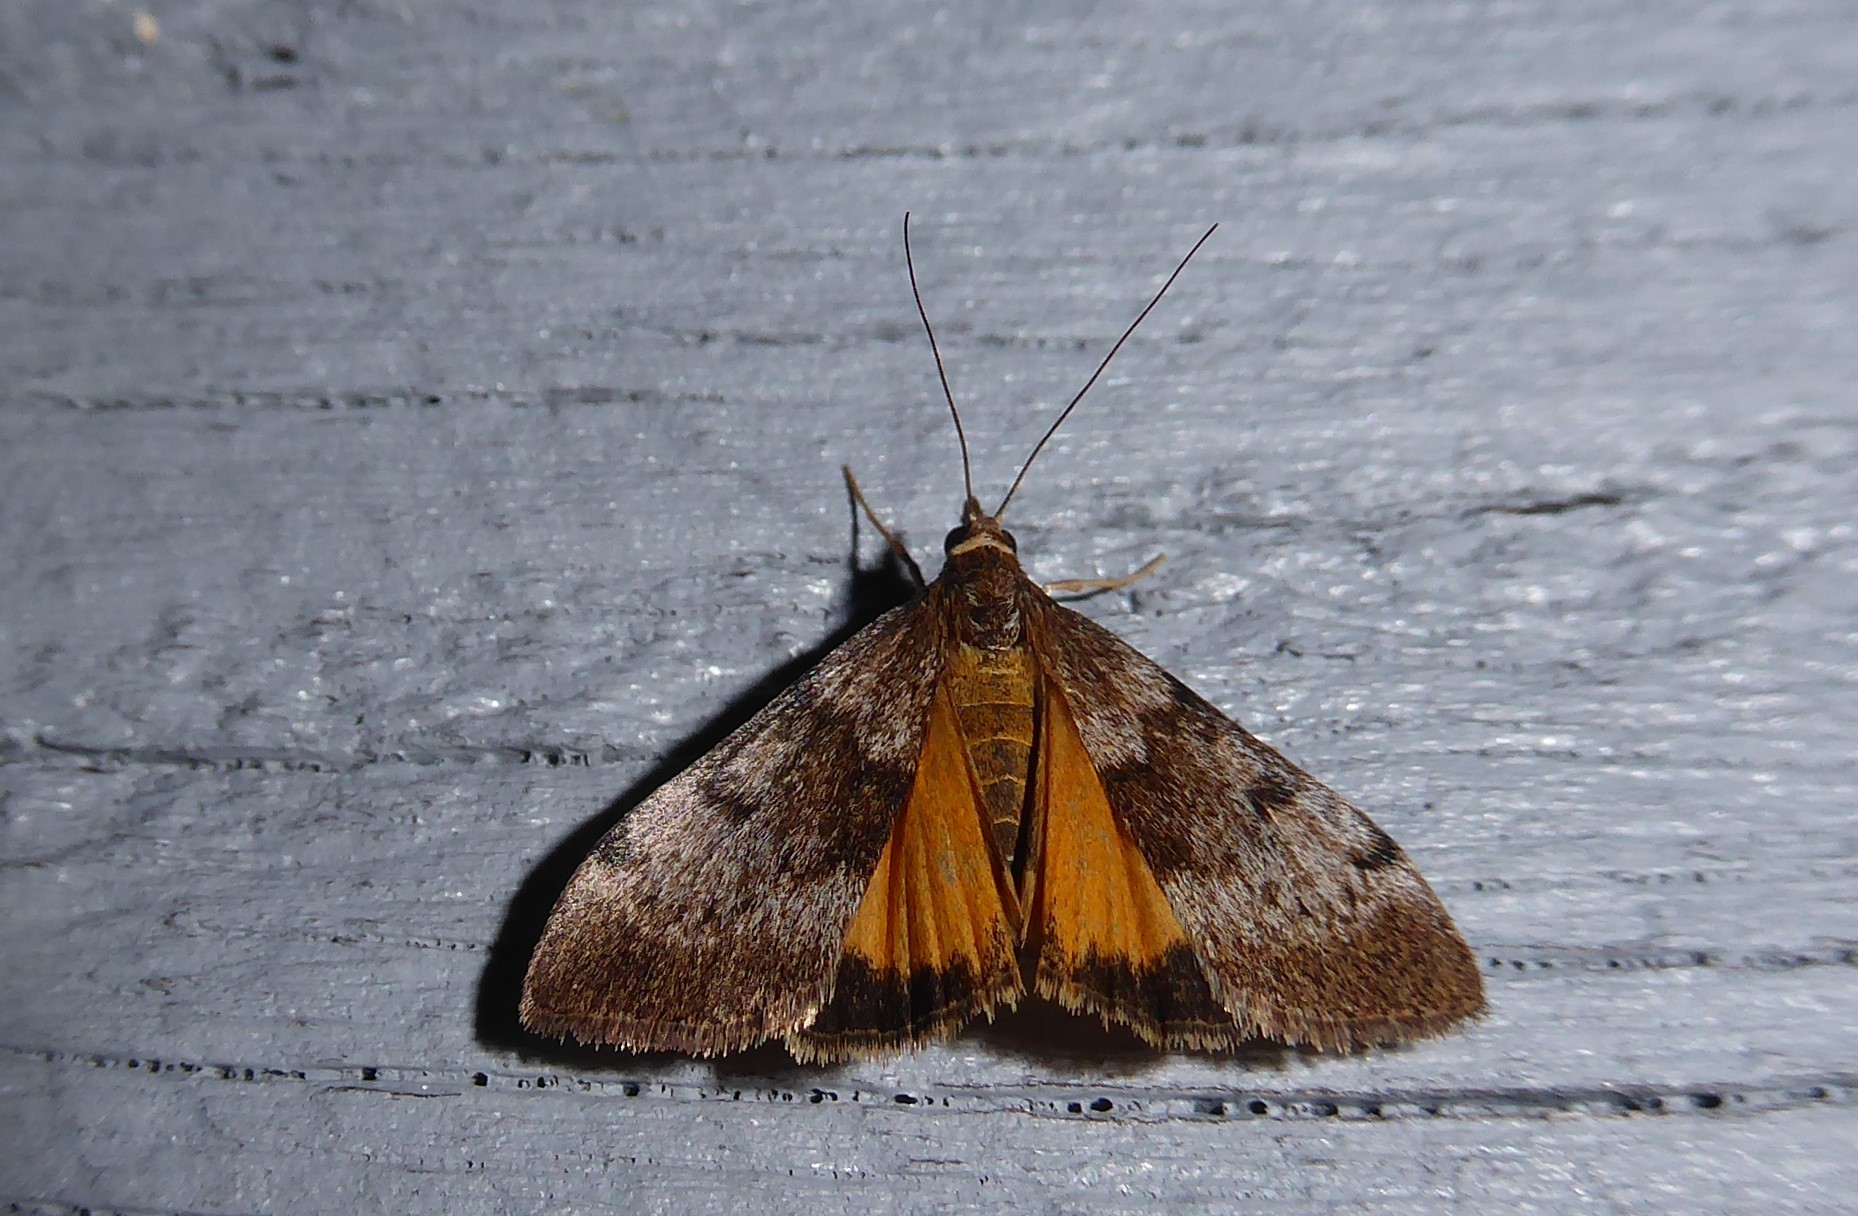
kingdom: Animalia
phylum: Arthropoda
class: Insecta
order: Lepidoptera
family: Crambidae
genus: Uresiphita
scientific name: Uresiphita
